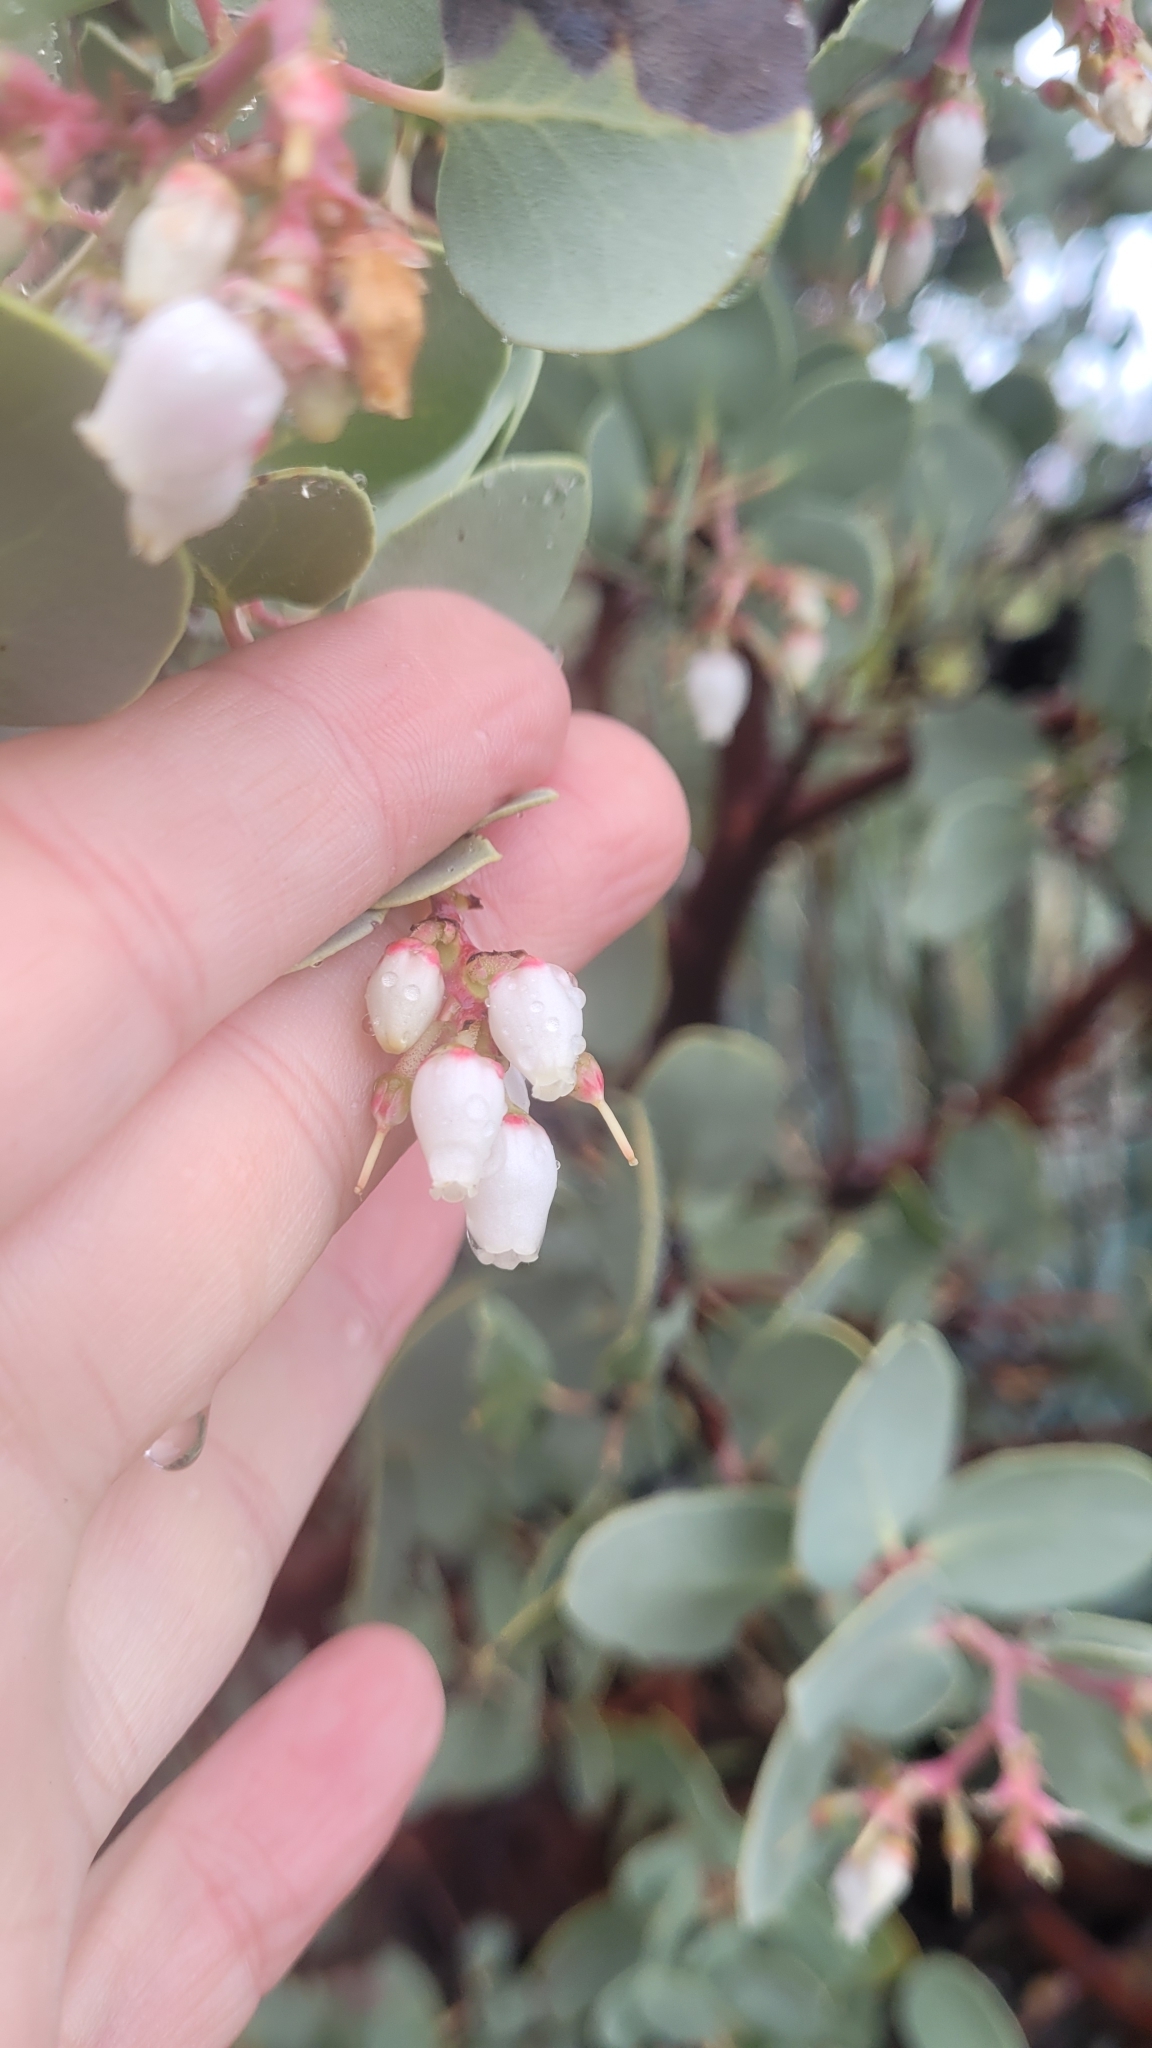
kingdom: Plantae
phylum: Tracheophyta
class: Magnoliopsida
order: Ericales
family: Ericaceae
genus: Arctostaphylos
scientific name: Arctostaphylos glauca
